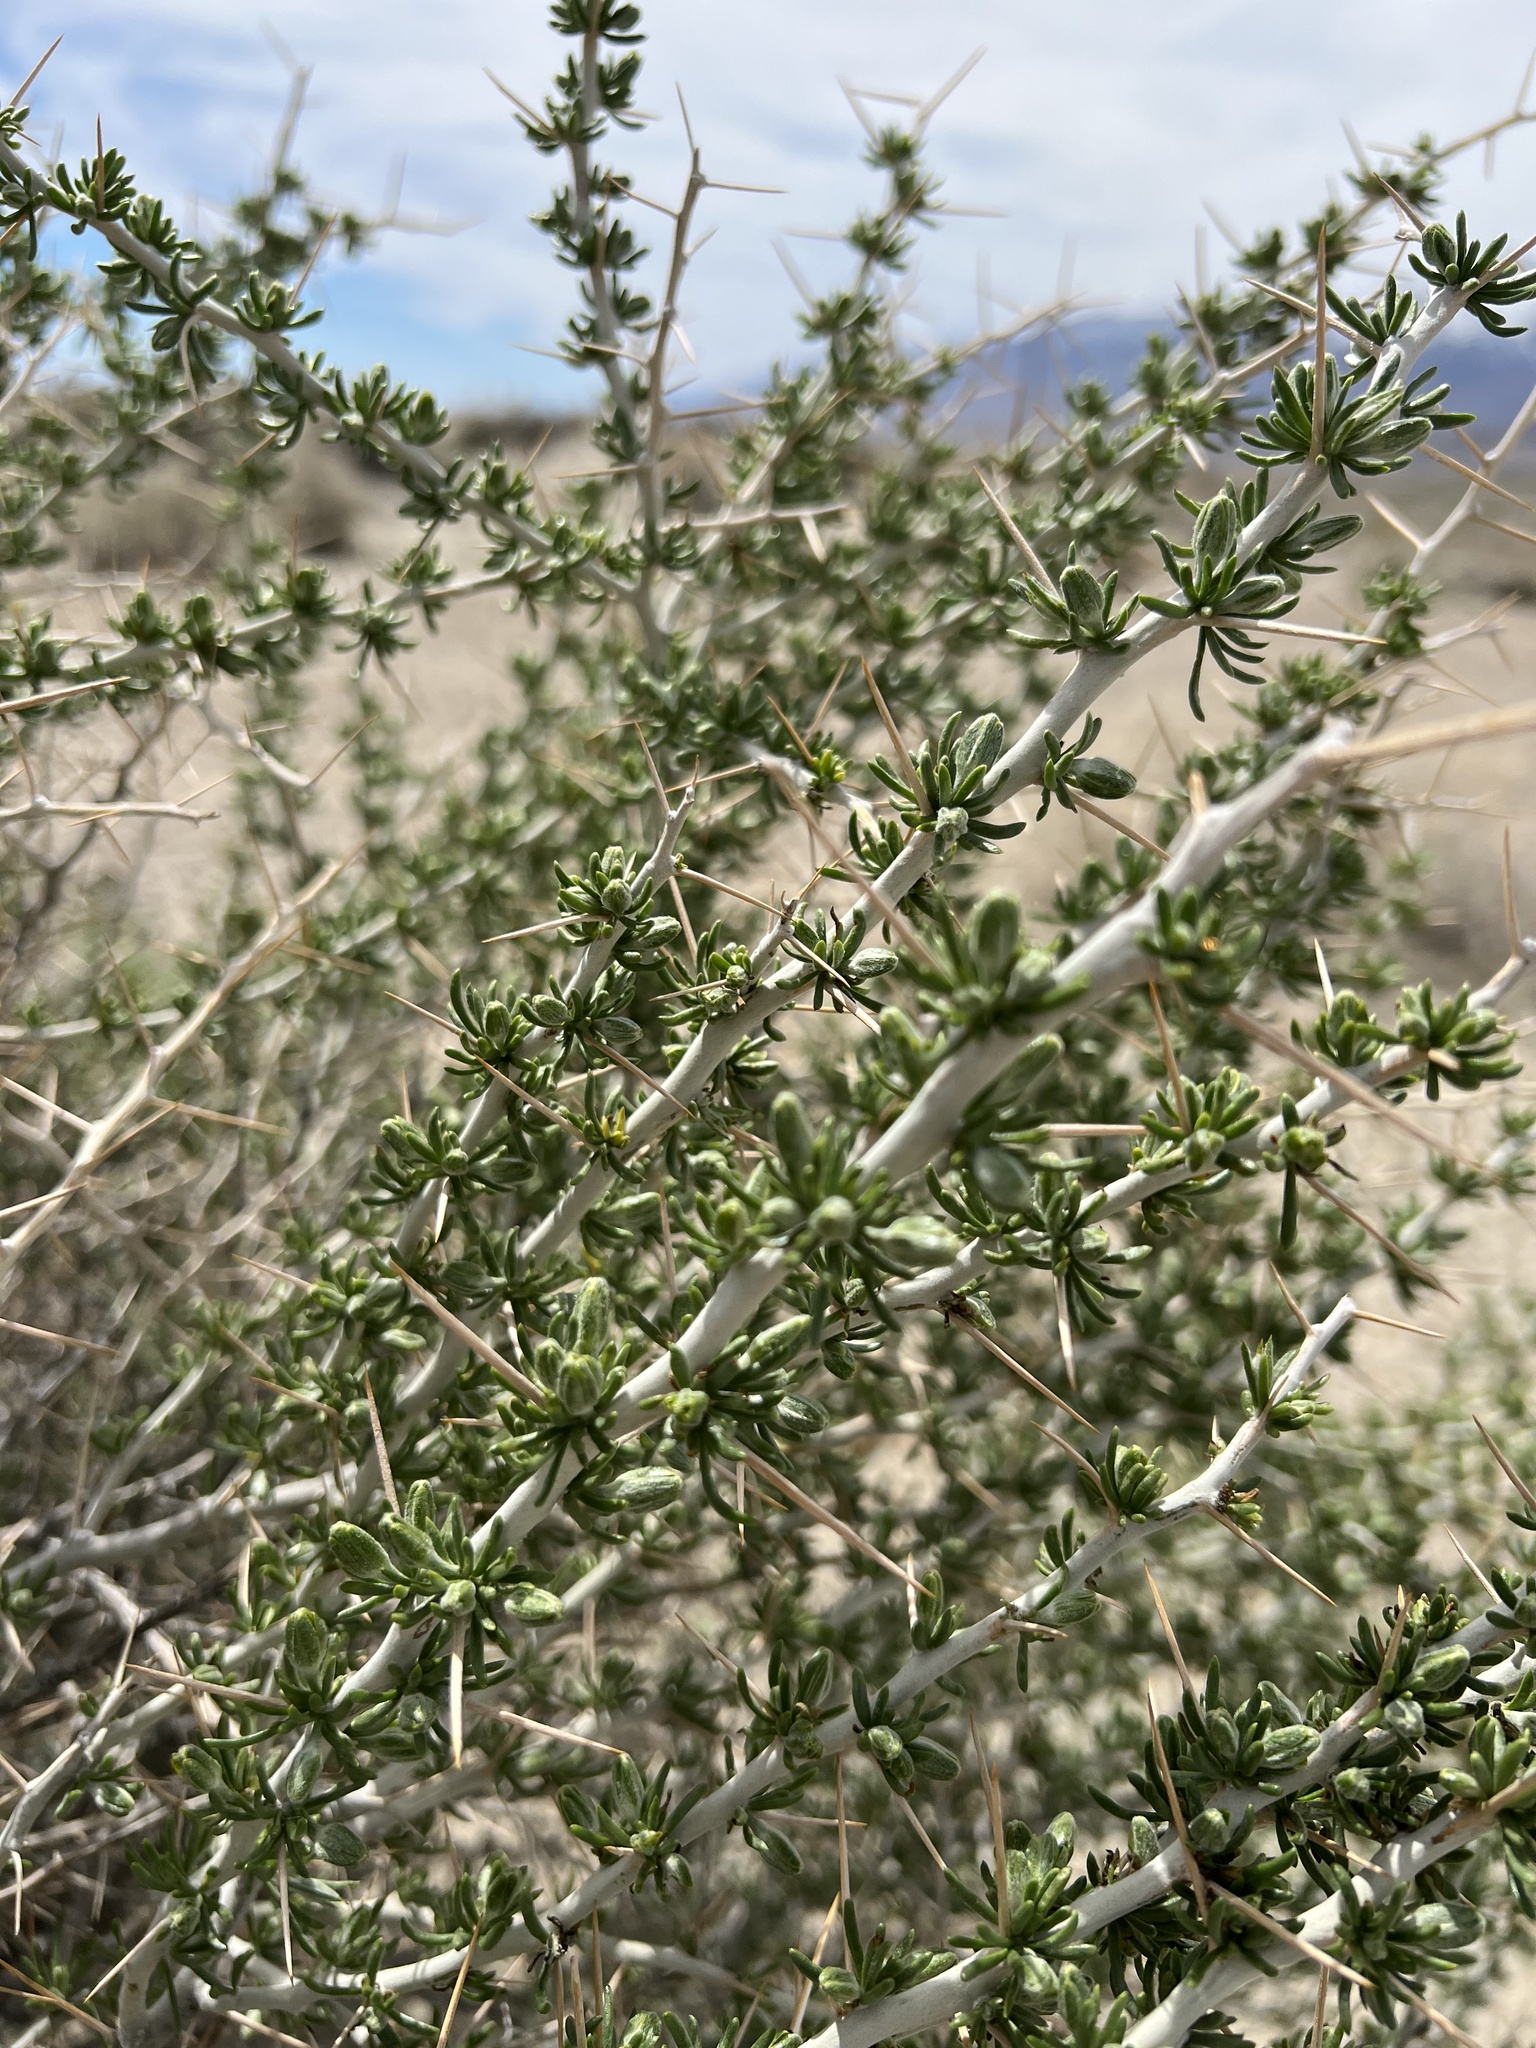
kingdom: Plantae
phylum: Tracheophyta
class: Magnoliopsida
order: Asterales
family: Asteraceae
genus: Tetradymia
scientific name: Tetradymia axillaris
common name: Long-spine horsebrush
